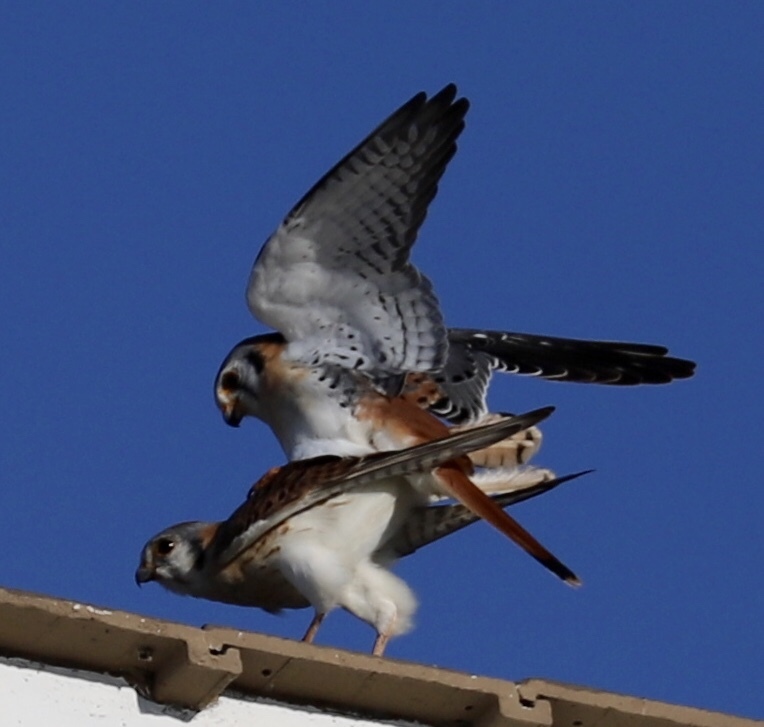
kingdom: Animalia
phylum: Chordata
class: Aves
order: Falconiformes
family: Falconidae
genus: Falco
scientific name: Falco sparverius
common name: American kestrel
